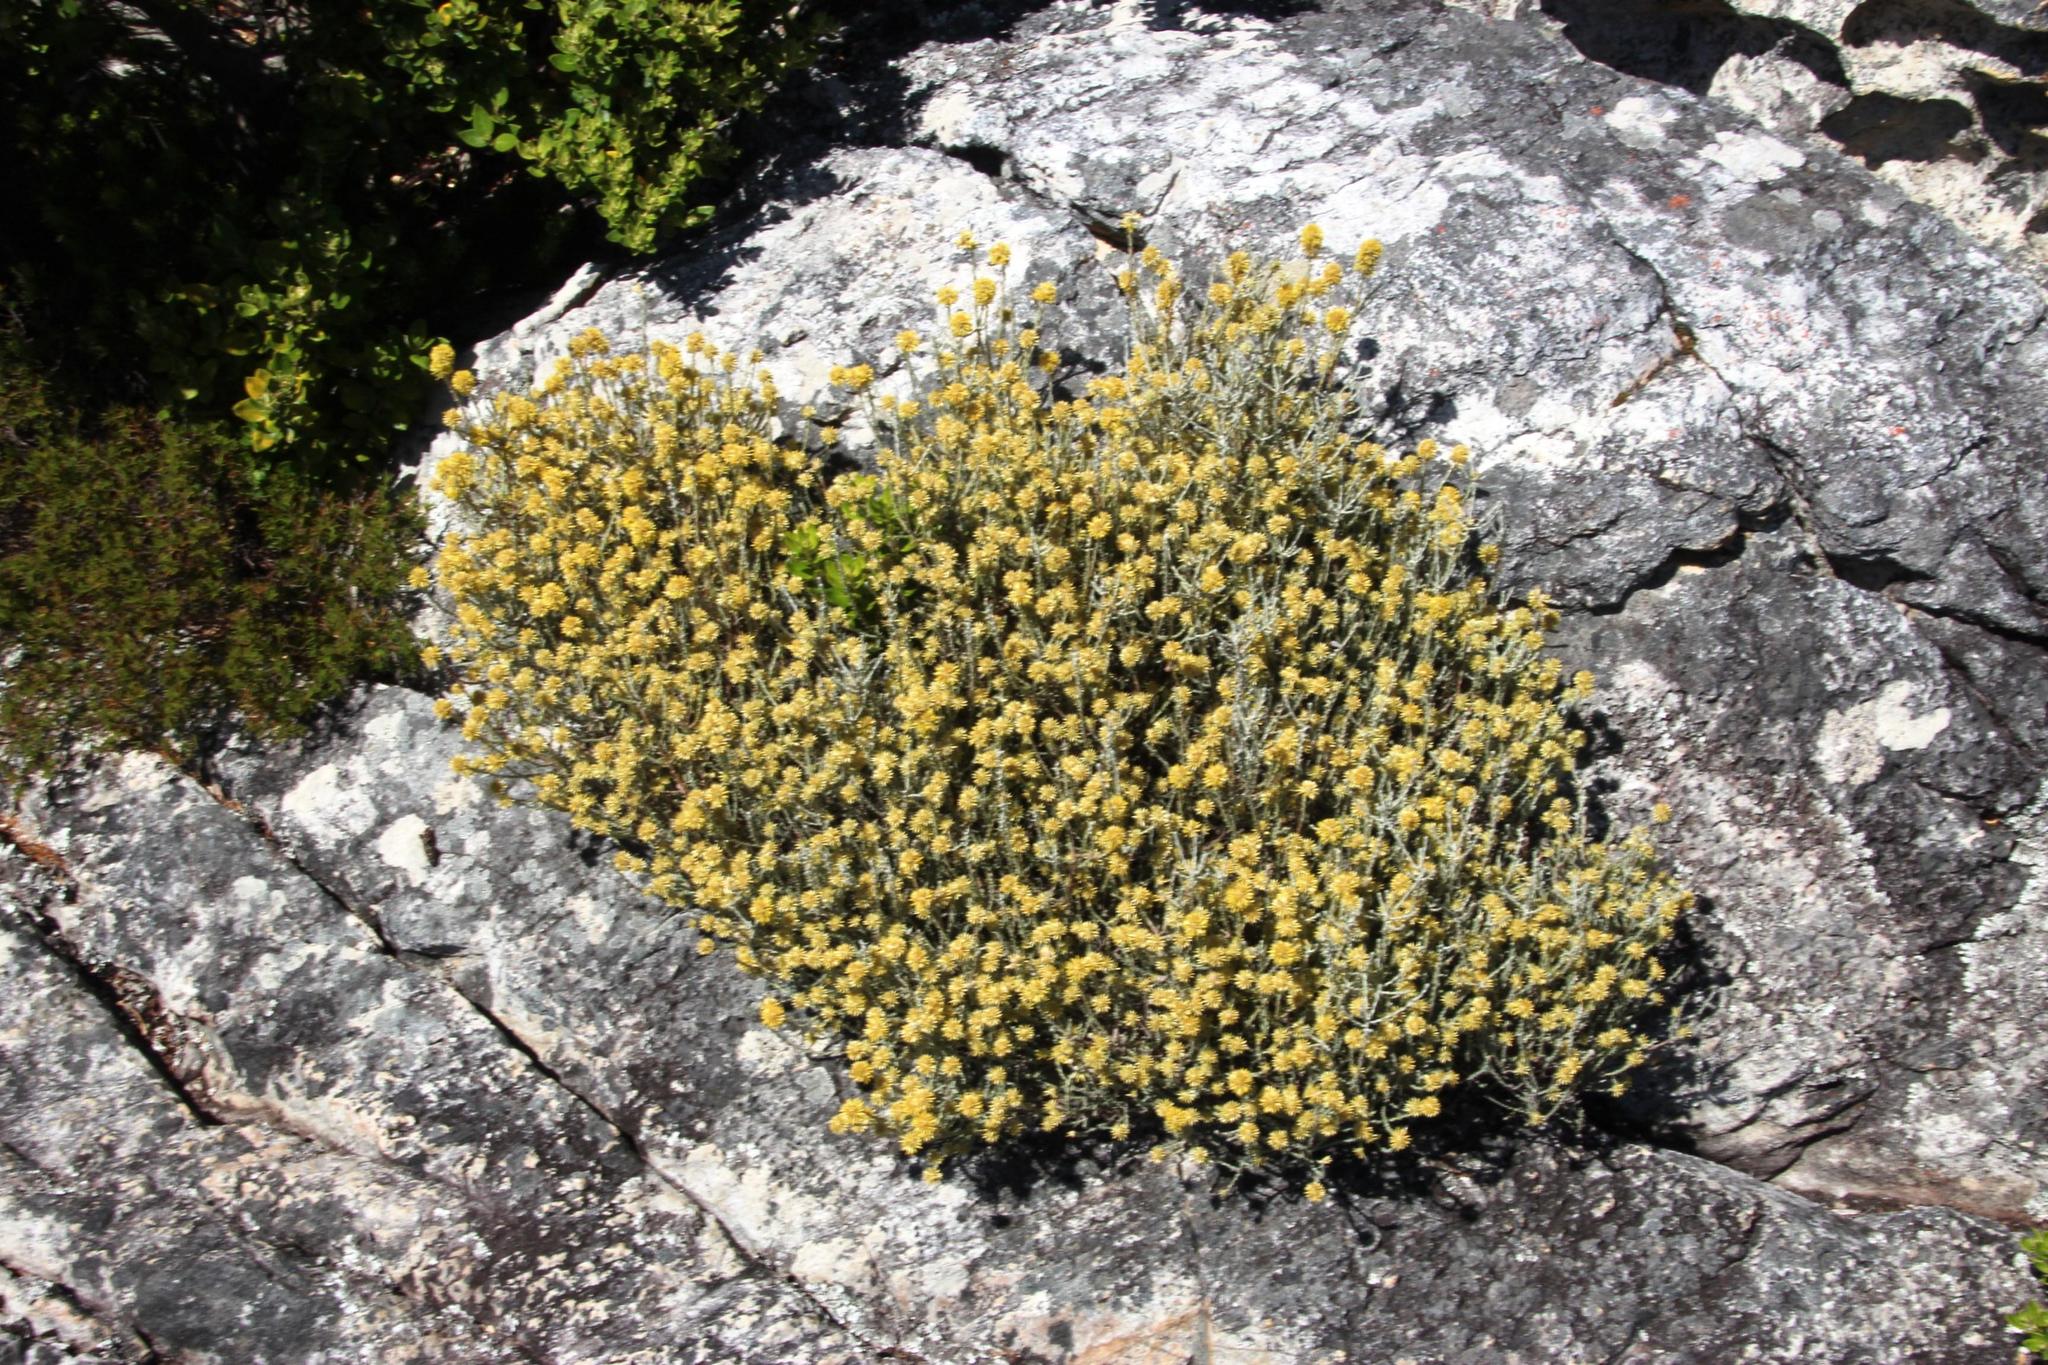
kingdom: Plantae
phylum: Tracheophyta
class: Magnoliopsida
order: Asterales
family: Asteraceae
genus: Seriphium
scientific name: Seriphium spirale
